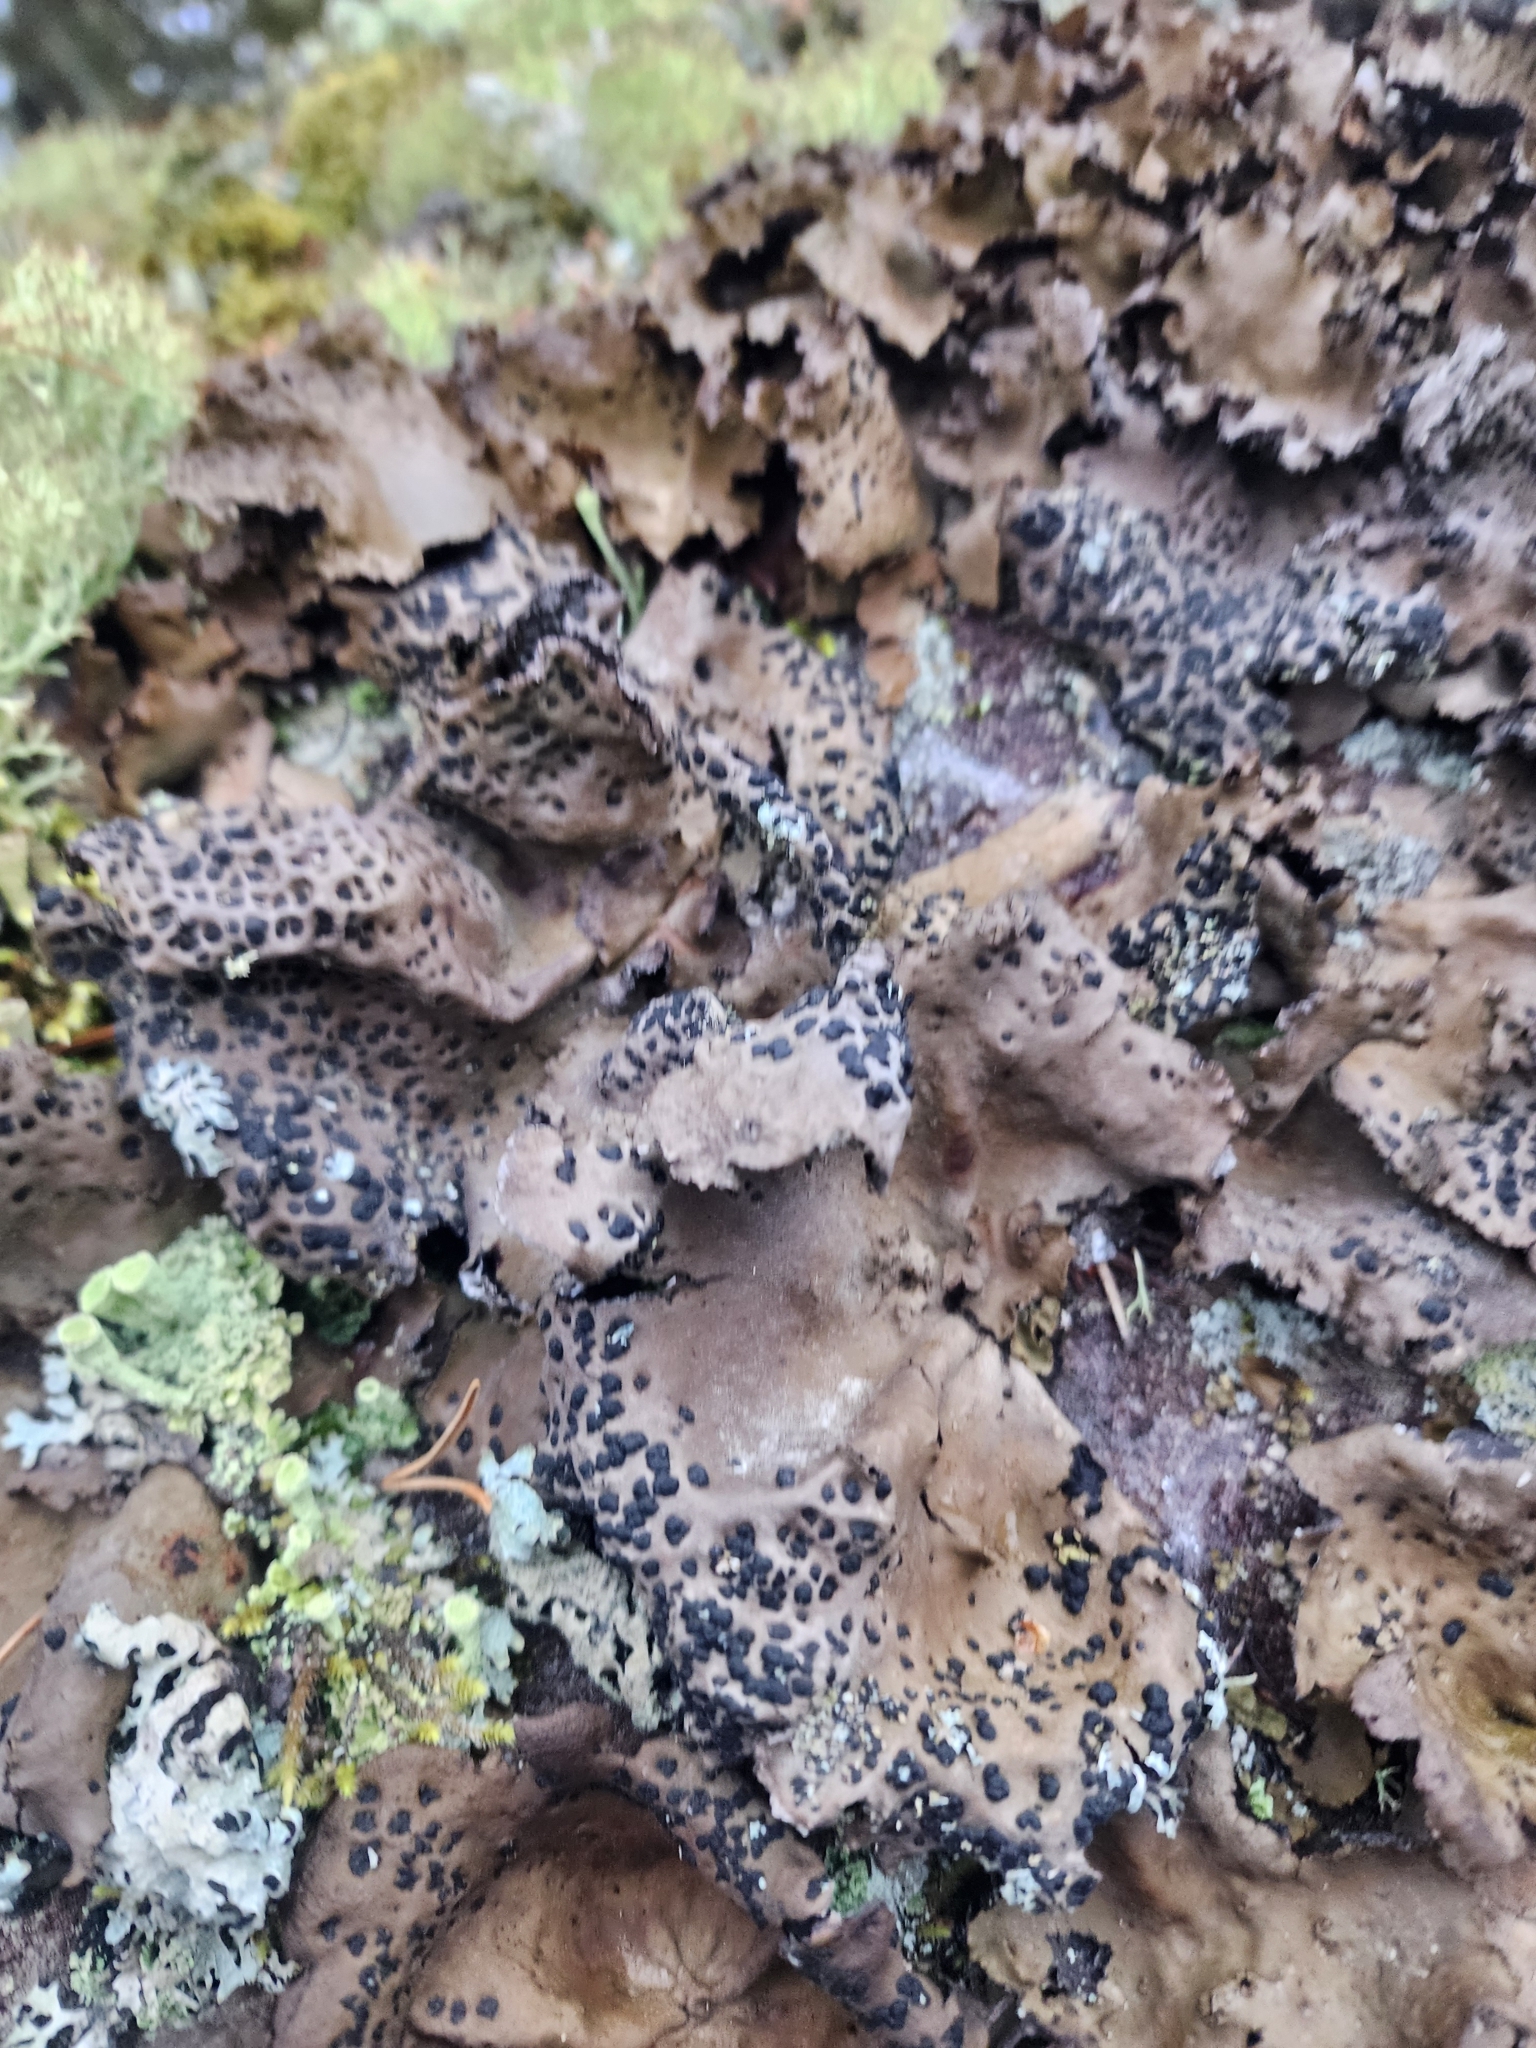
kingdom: Fungi
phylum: Ascomycota
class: Lecanoromycetes
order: Umbilicariales
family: Umbilicariaceae
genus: Umbilicaria
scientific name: Umbilicaria muhlenbergii
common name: Lesser rocktripe
